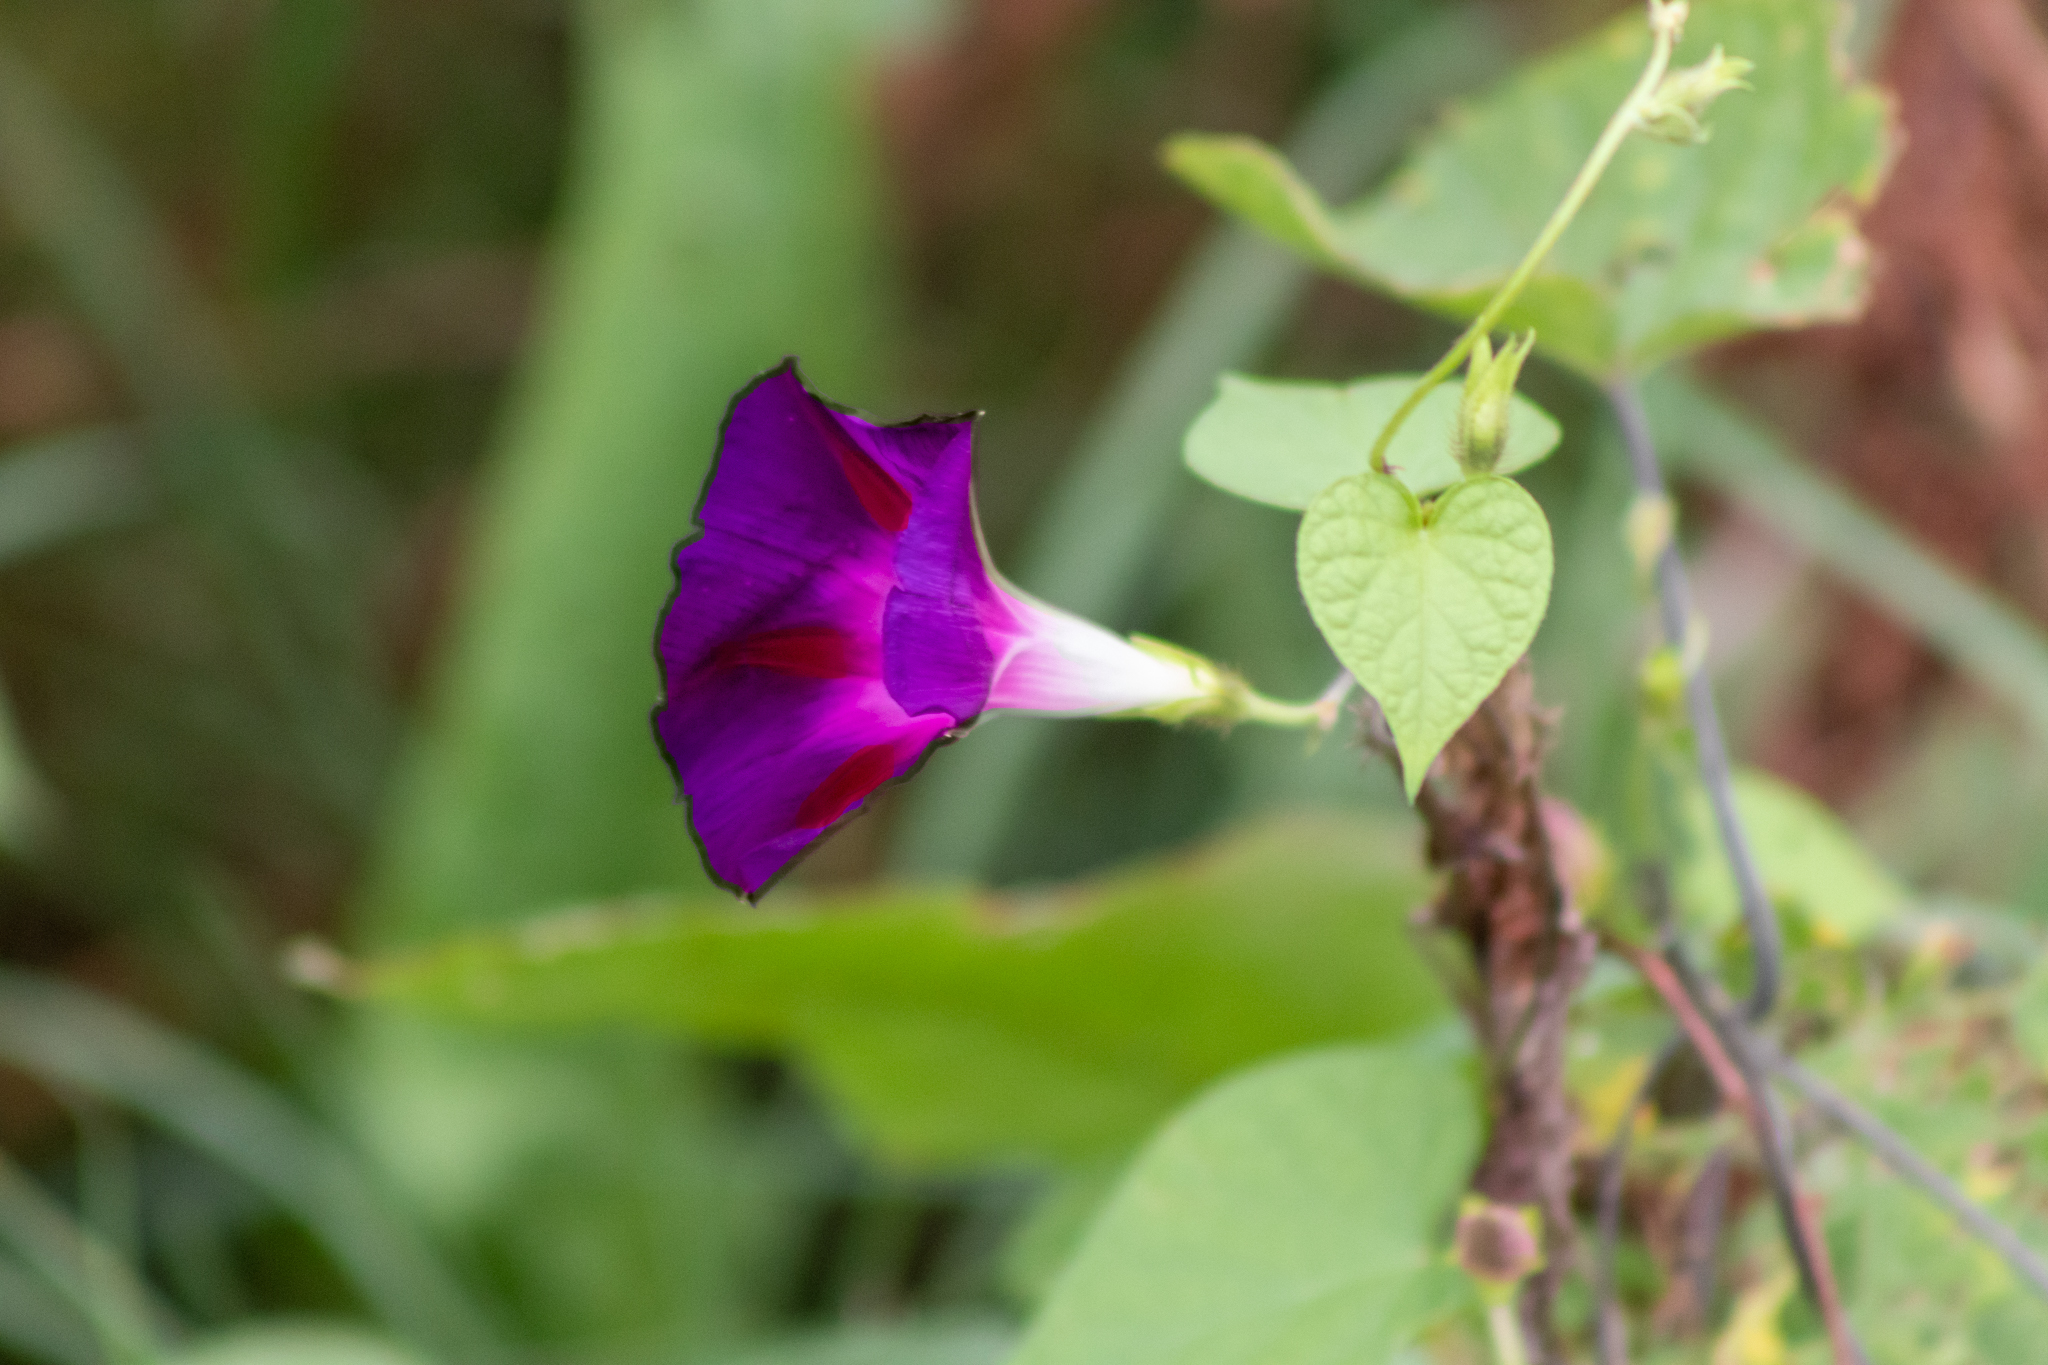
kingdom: Plantae
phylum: Tracheophyta
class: Magnoliopsida
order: Solanales
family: Convolvulaceae
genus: Ipomoea
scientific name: Ipomoea purpurea
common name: Common morning-glory
